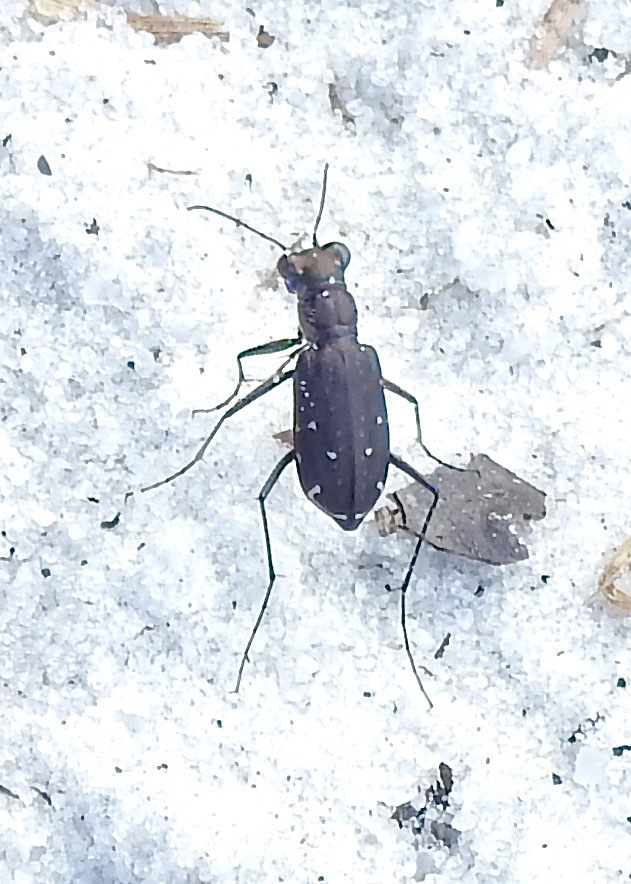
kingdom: Animalia
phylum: Arthropoda
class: Insecta
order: Coleoptera
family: Carabidae
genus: Cicindela
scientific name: Cicindela punctulata
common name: Punctured tiger beetle
